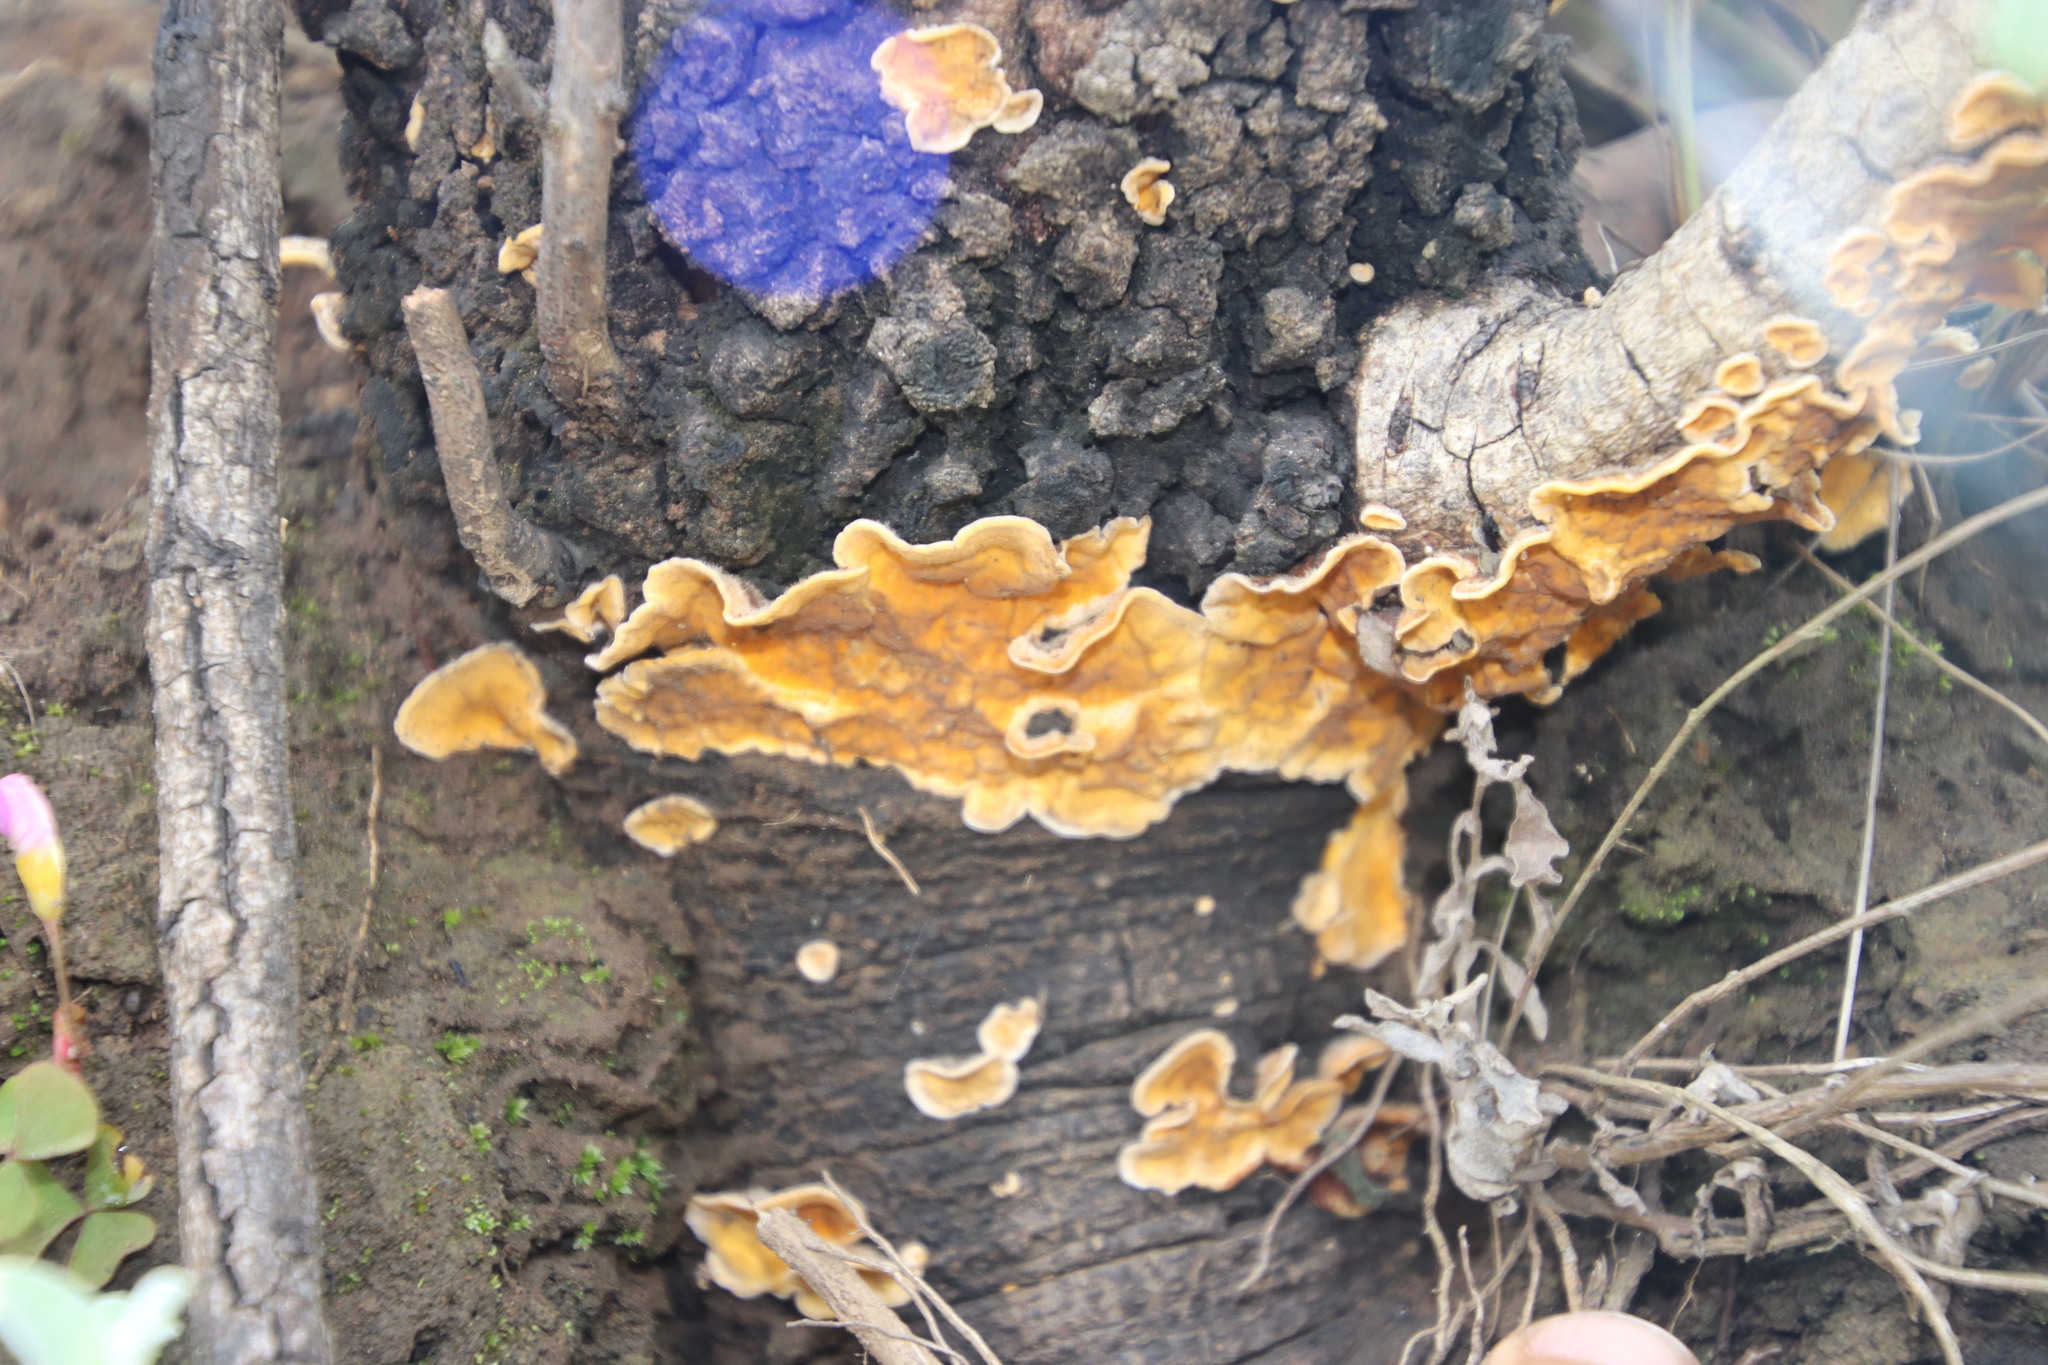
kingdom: Fungi
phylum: Basidiomycota
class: Agaricomycetes
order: Russulales
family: Stereaceae
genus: Stereum
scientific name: Stereum hirsutum
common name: Hairy curtain crust
